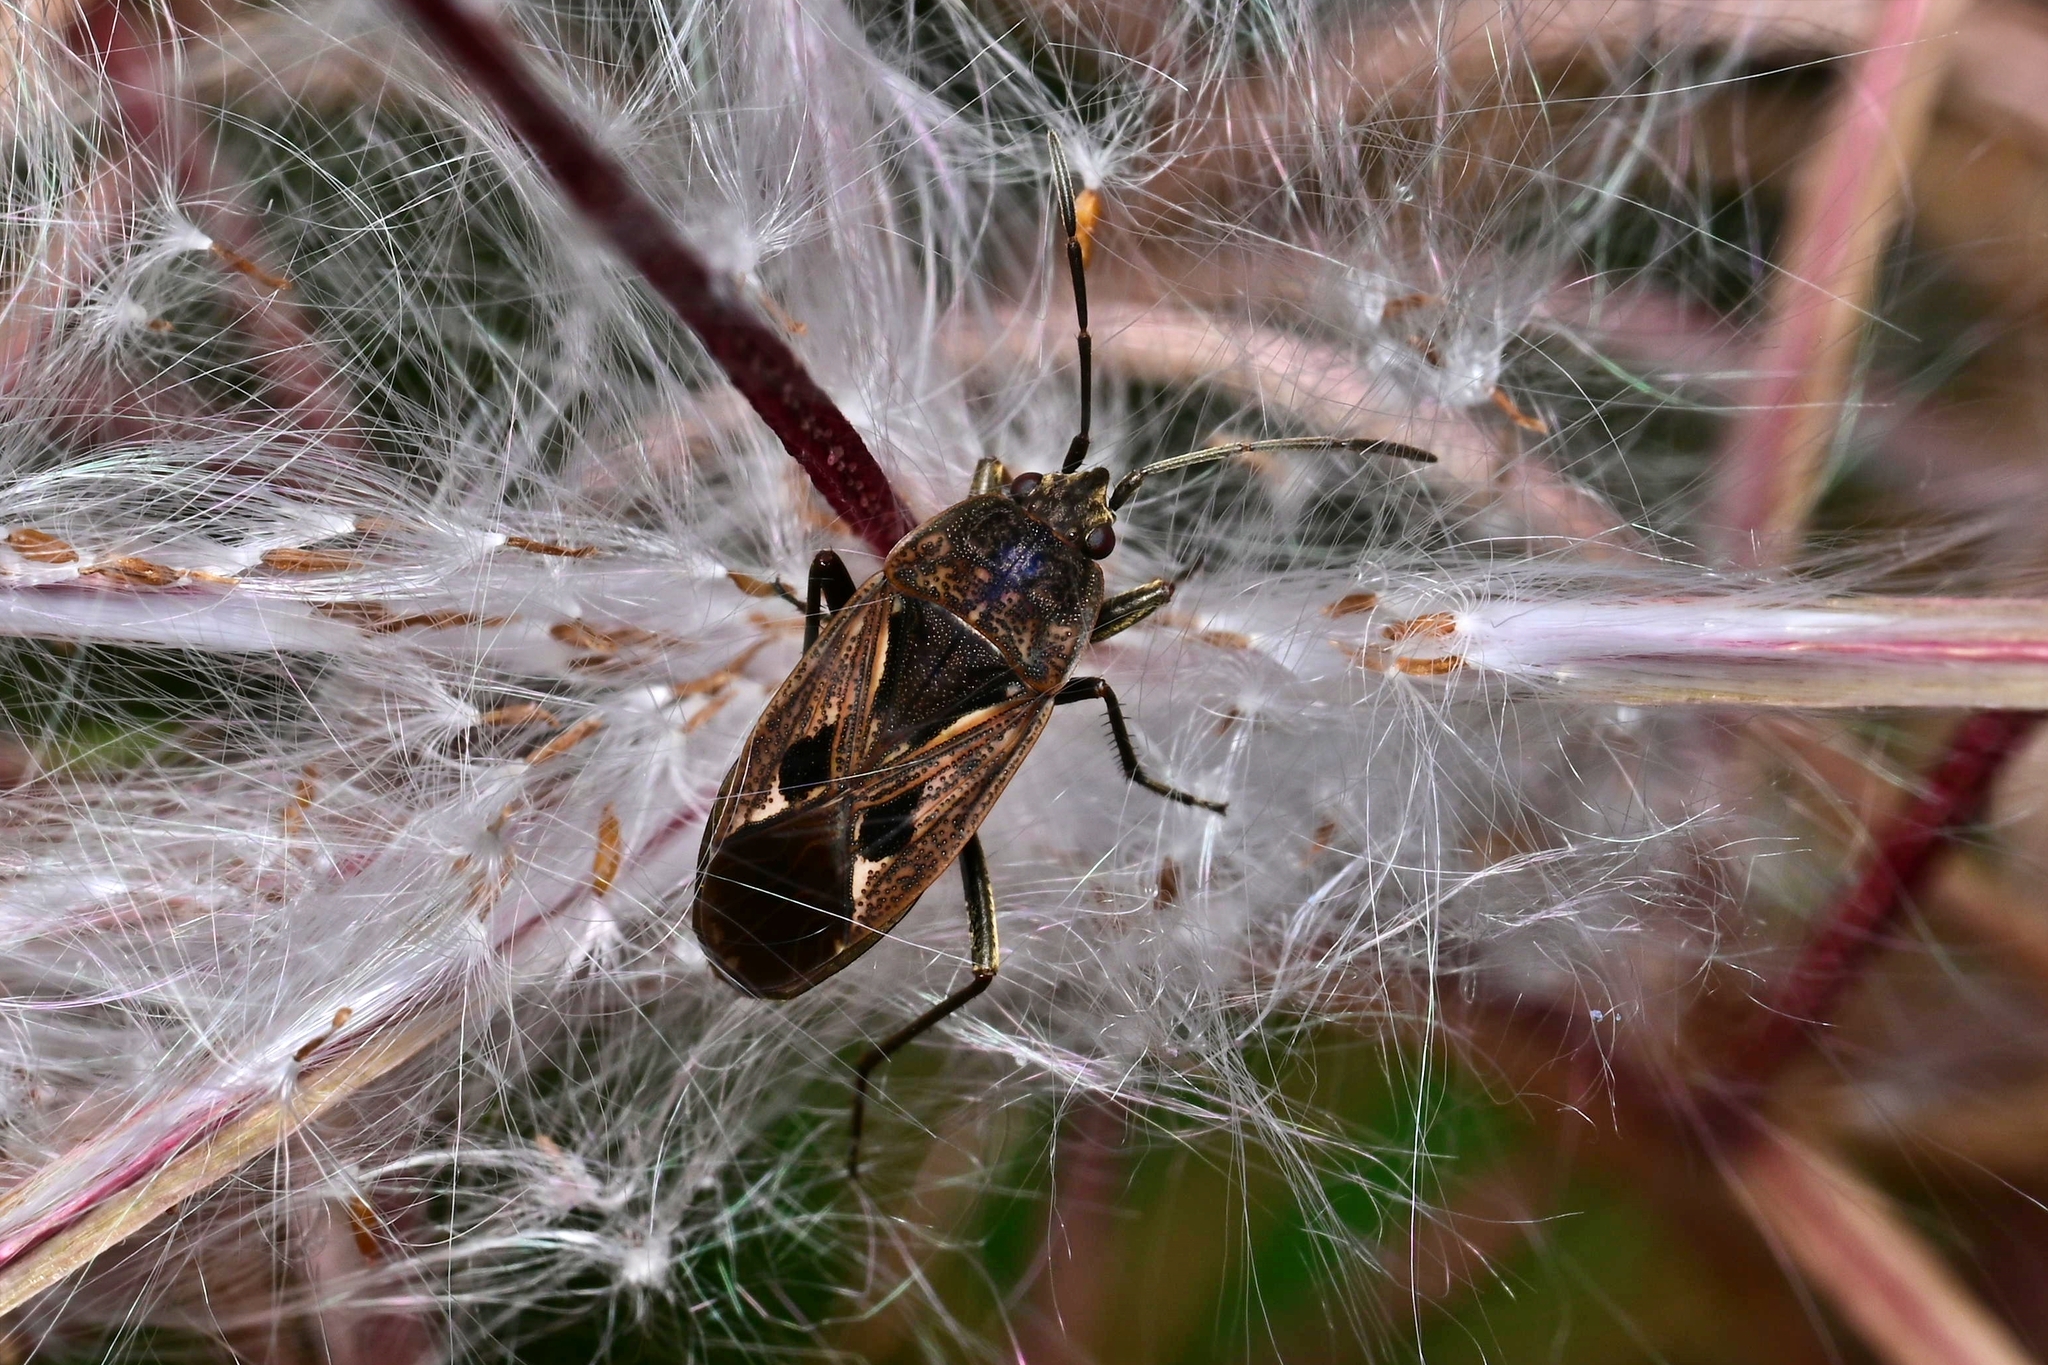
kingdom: Animalia
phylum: Arthropoda
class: Insecta
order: Hemiptera
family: Rhyparochromidae
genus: Rhyparochromus
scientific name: Rhyparochromus pini
